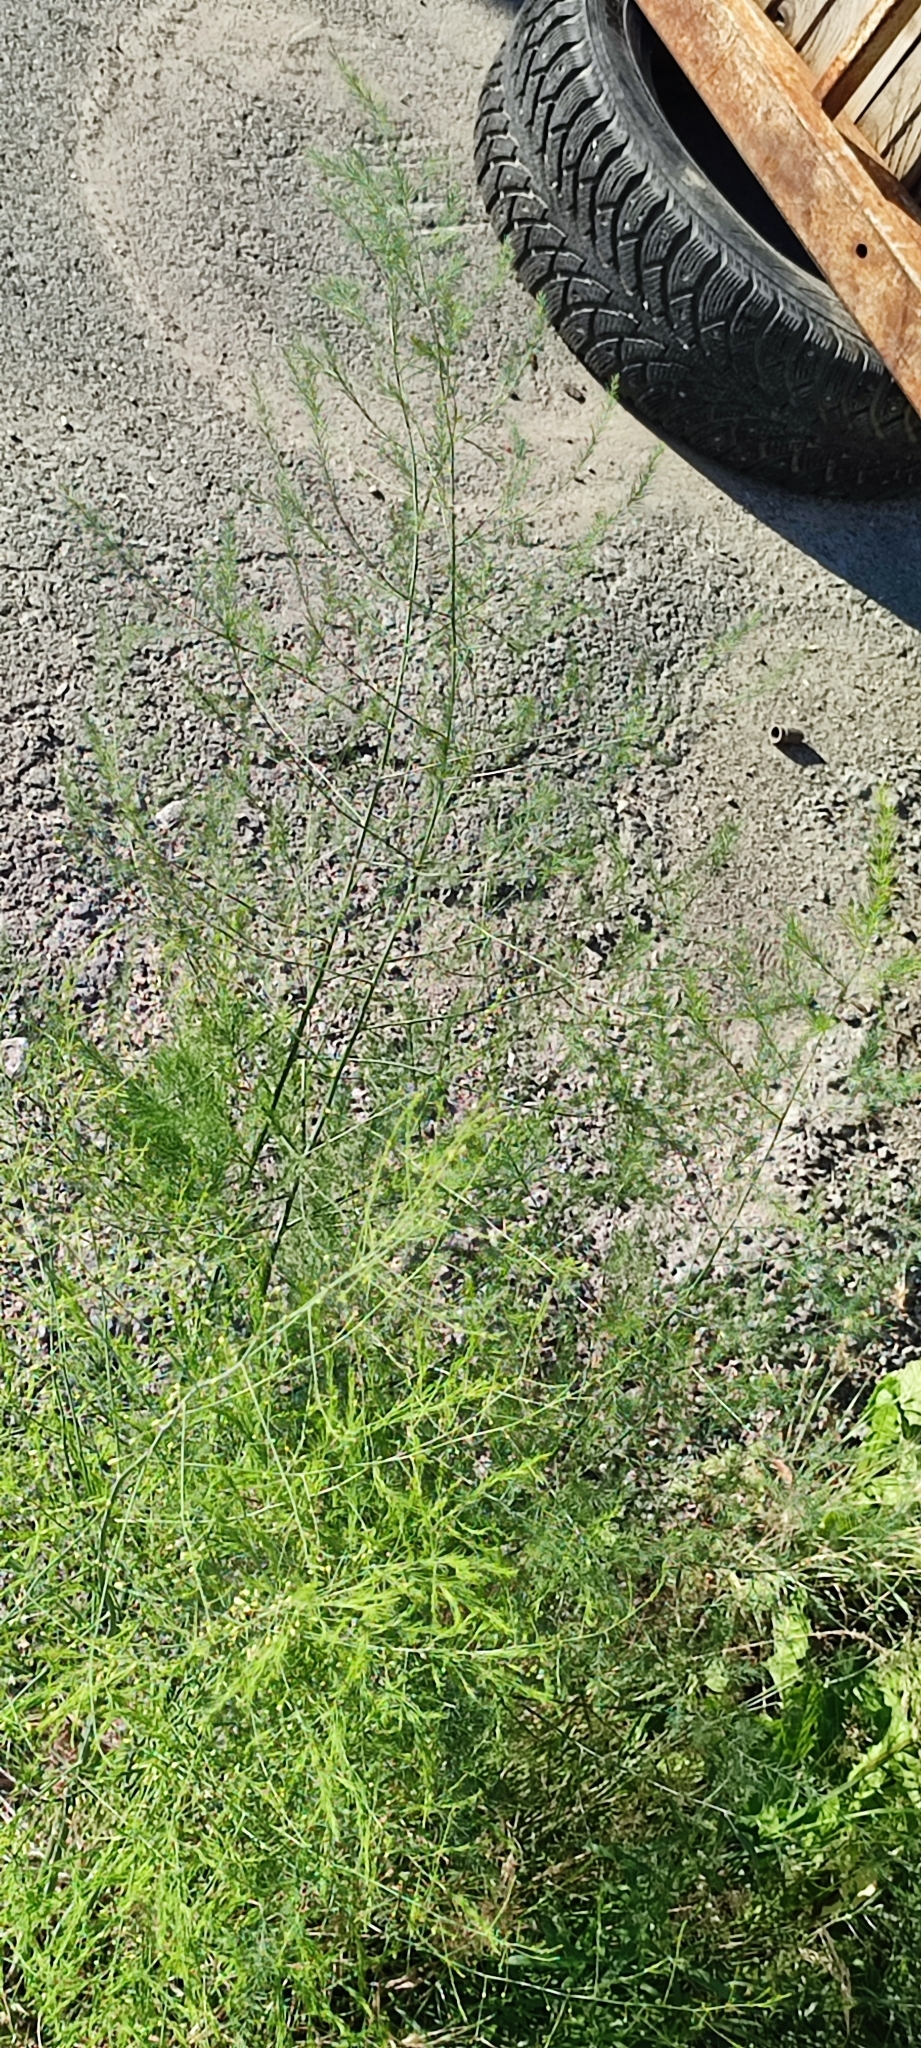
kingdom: Plantae
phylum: Tracheophyta
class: Liliopsida
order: Asparagales
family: Asparagaceae
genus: Asparagus
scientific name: Asparagus officinalis
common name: Garden asparagus
